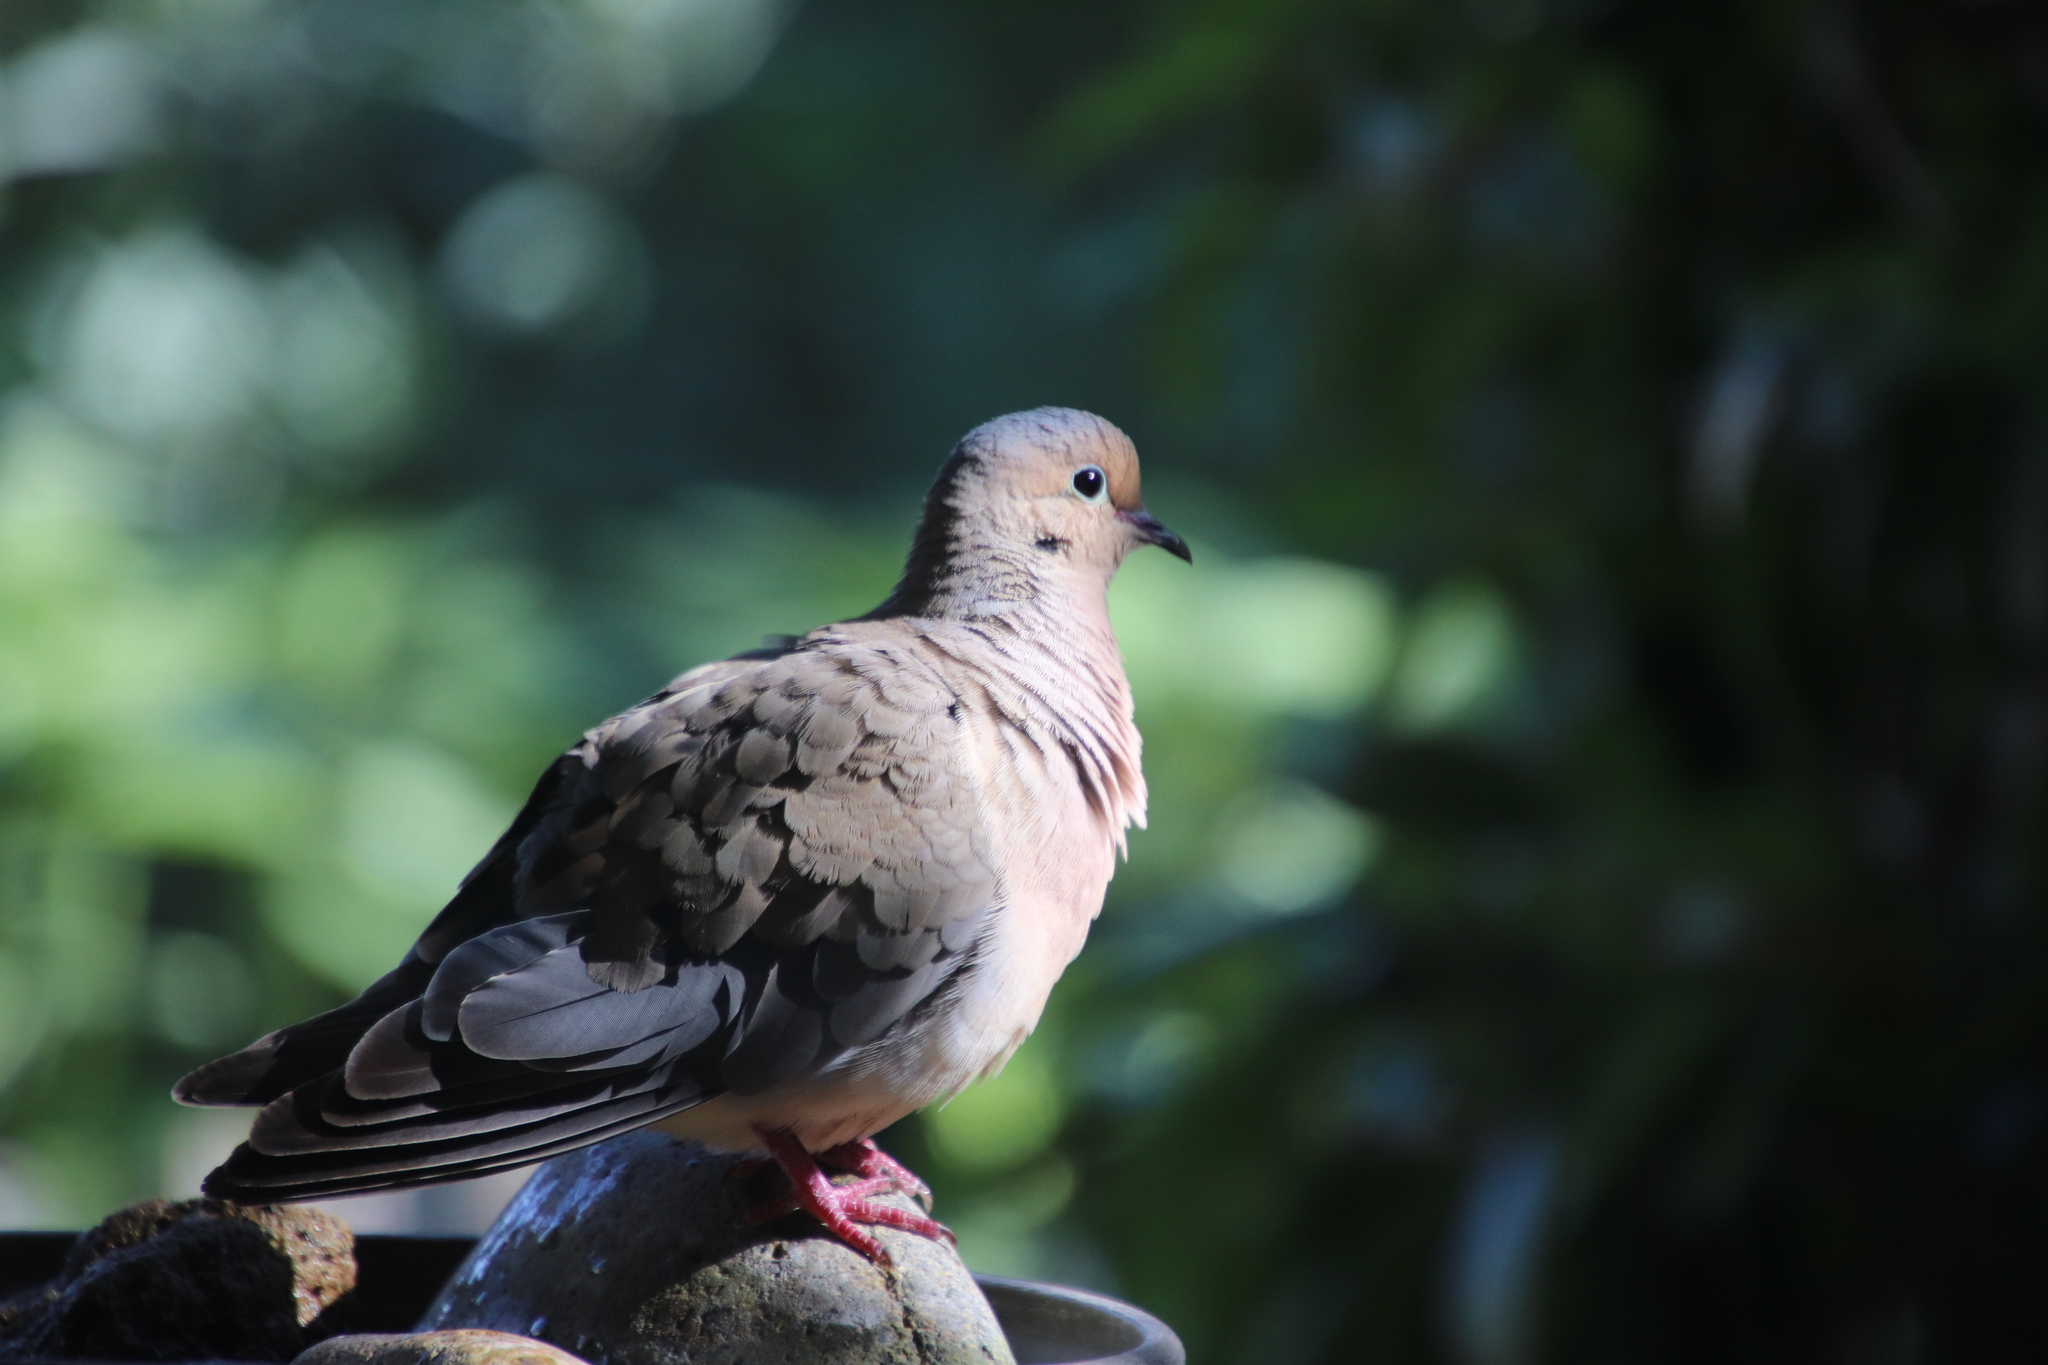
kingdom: Animalia
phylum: Chordata
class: Aves
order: Columbiformes
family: Columbidae
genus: Zenaida
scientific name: Zenaida macroura
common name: Mourning dove
